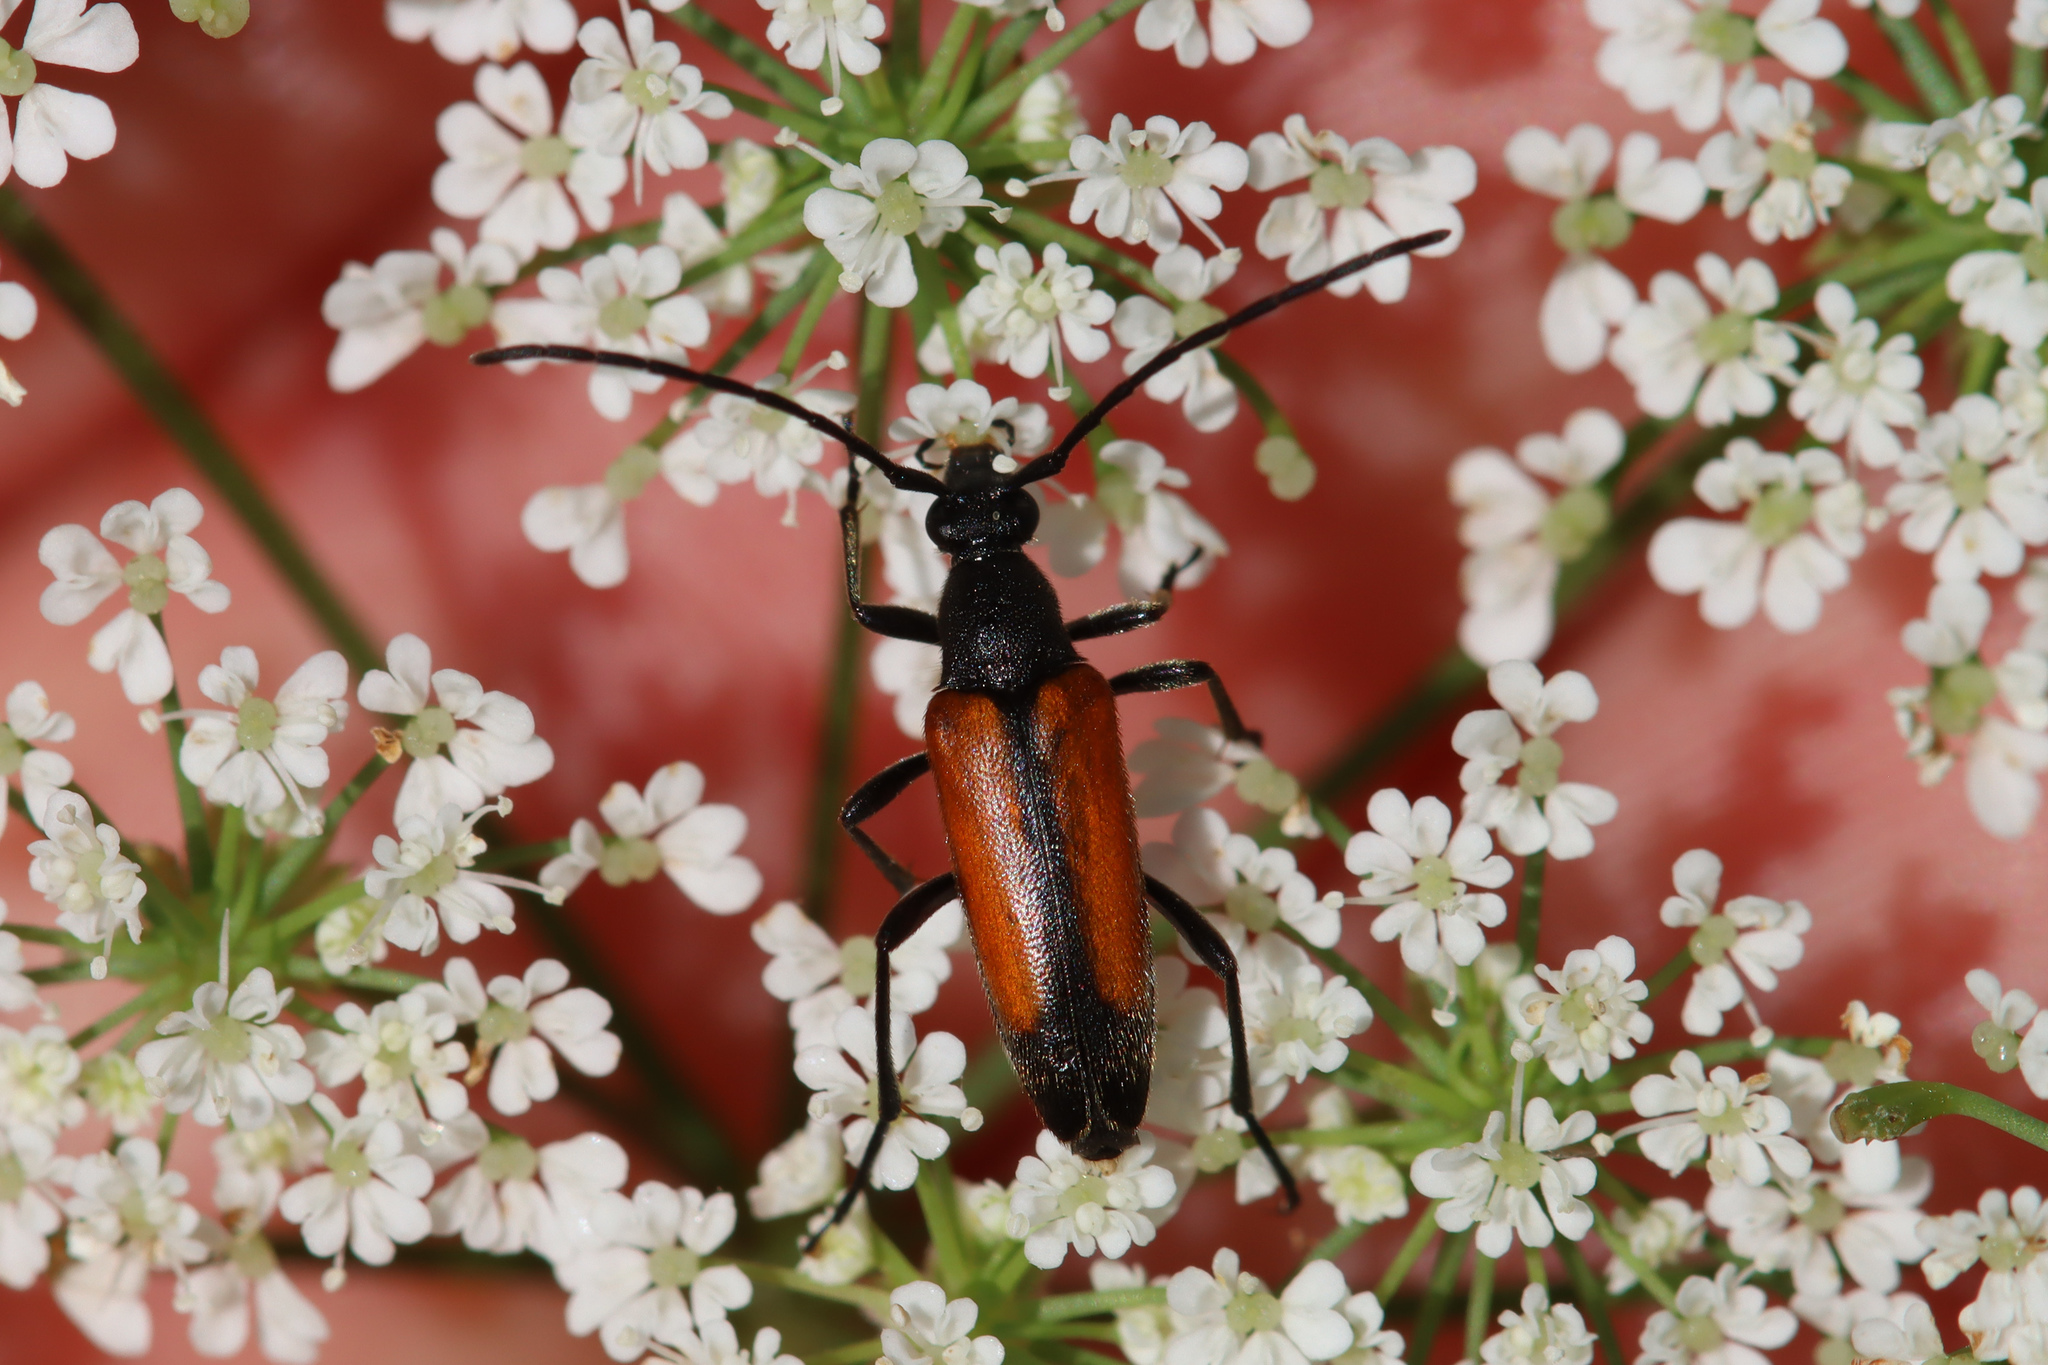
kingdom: Animalia
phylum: Arthropoda
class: Insecta
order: Coleoptera
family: Cerambycidae
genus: Stenurella
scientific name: Stenurella melanura
